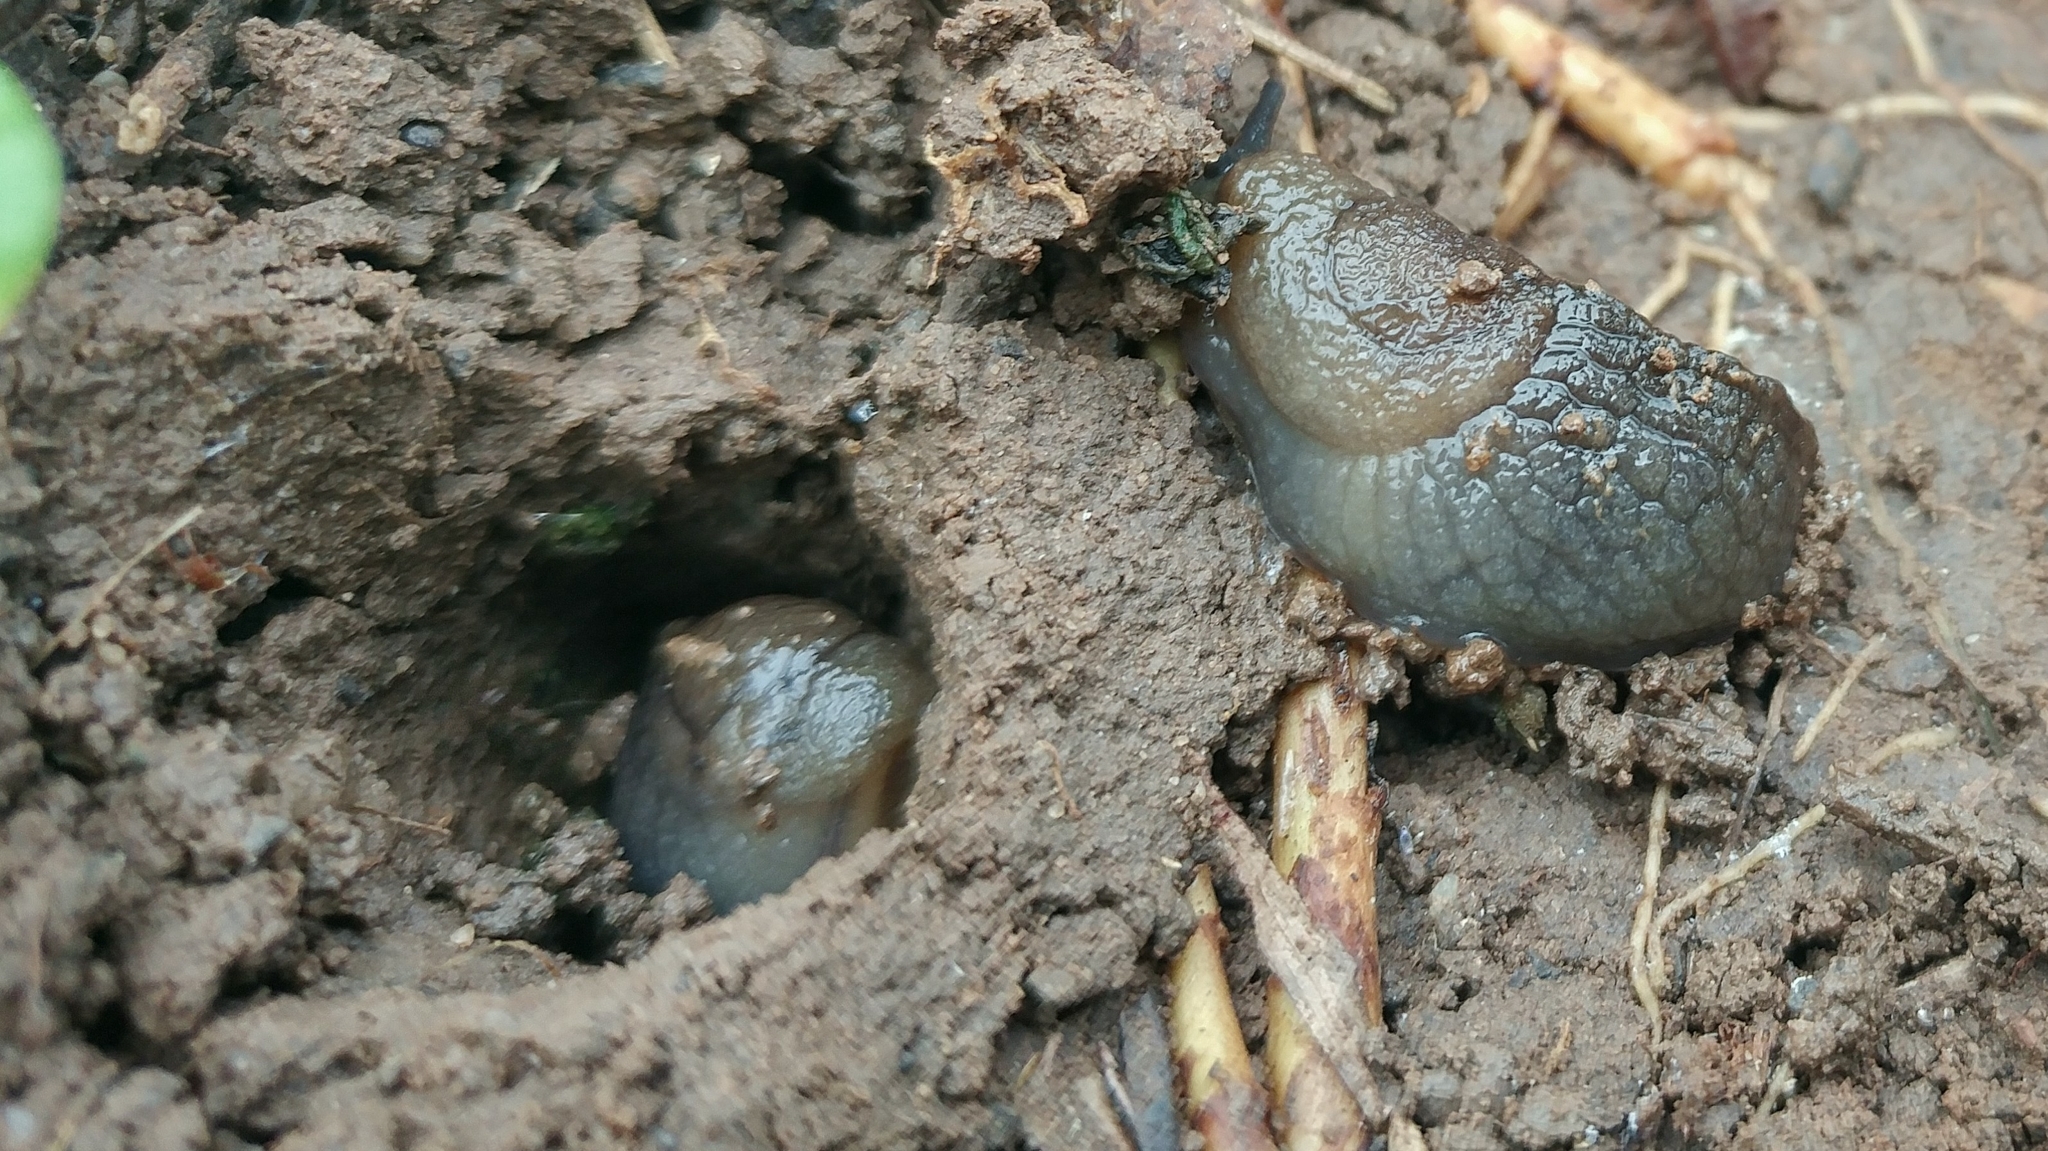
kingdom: Animalia
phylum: Mollusca
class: Gastropoda
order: Stylommatophora
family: Milacidae
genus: Milax
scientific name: Milax gagates
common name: Greenhouse slug
